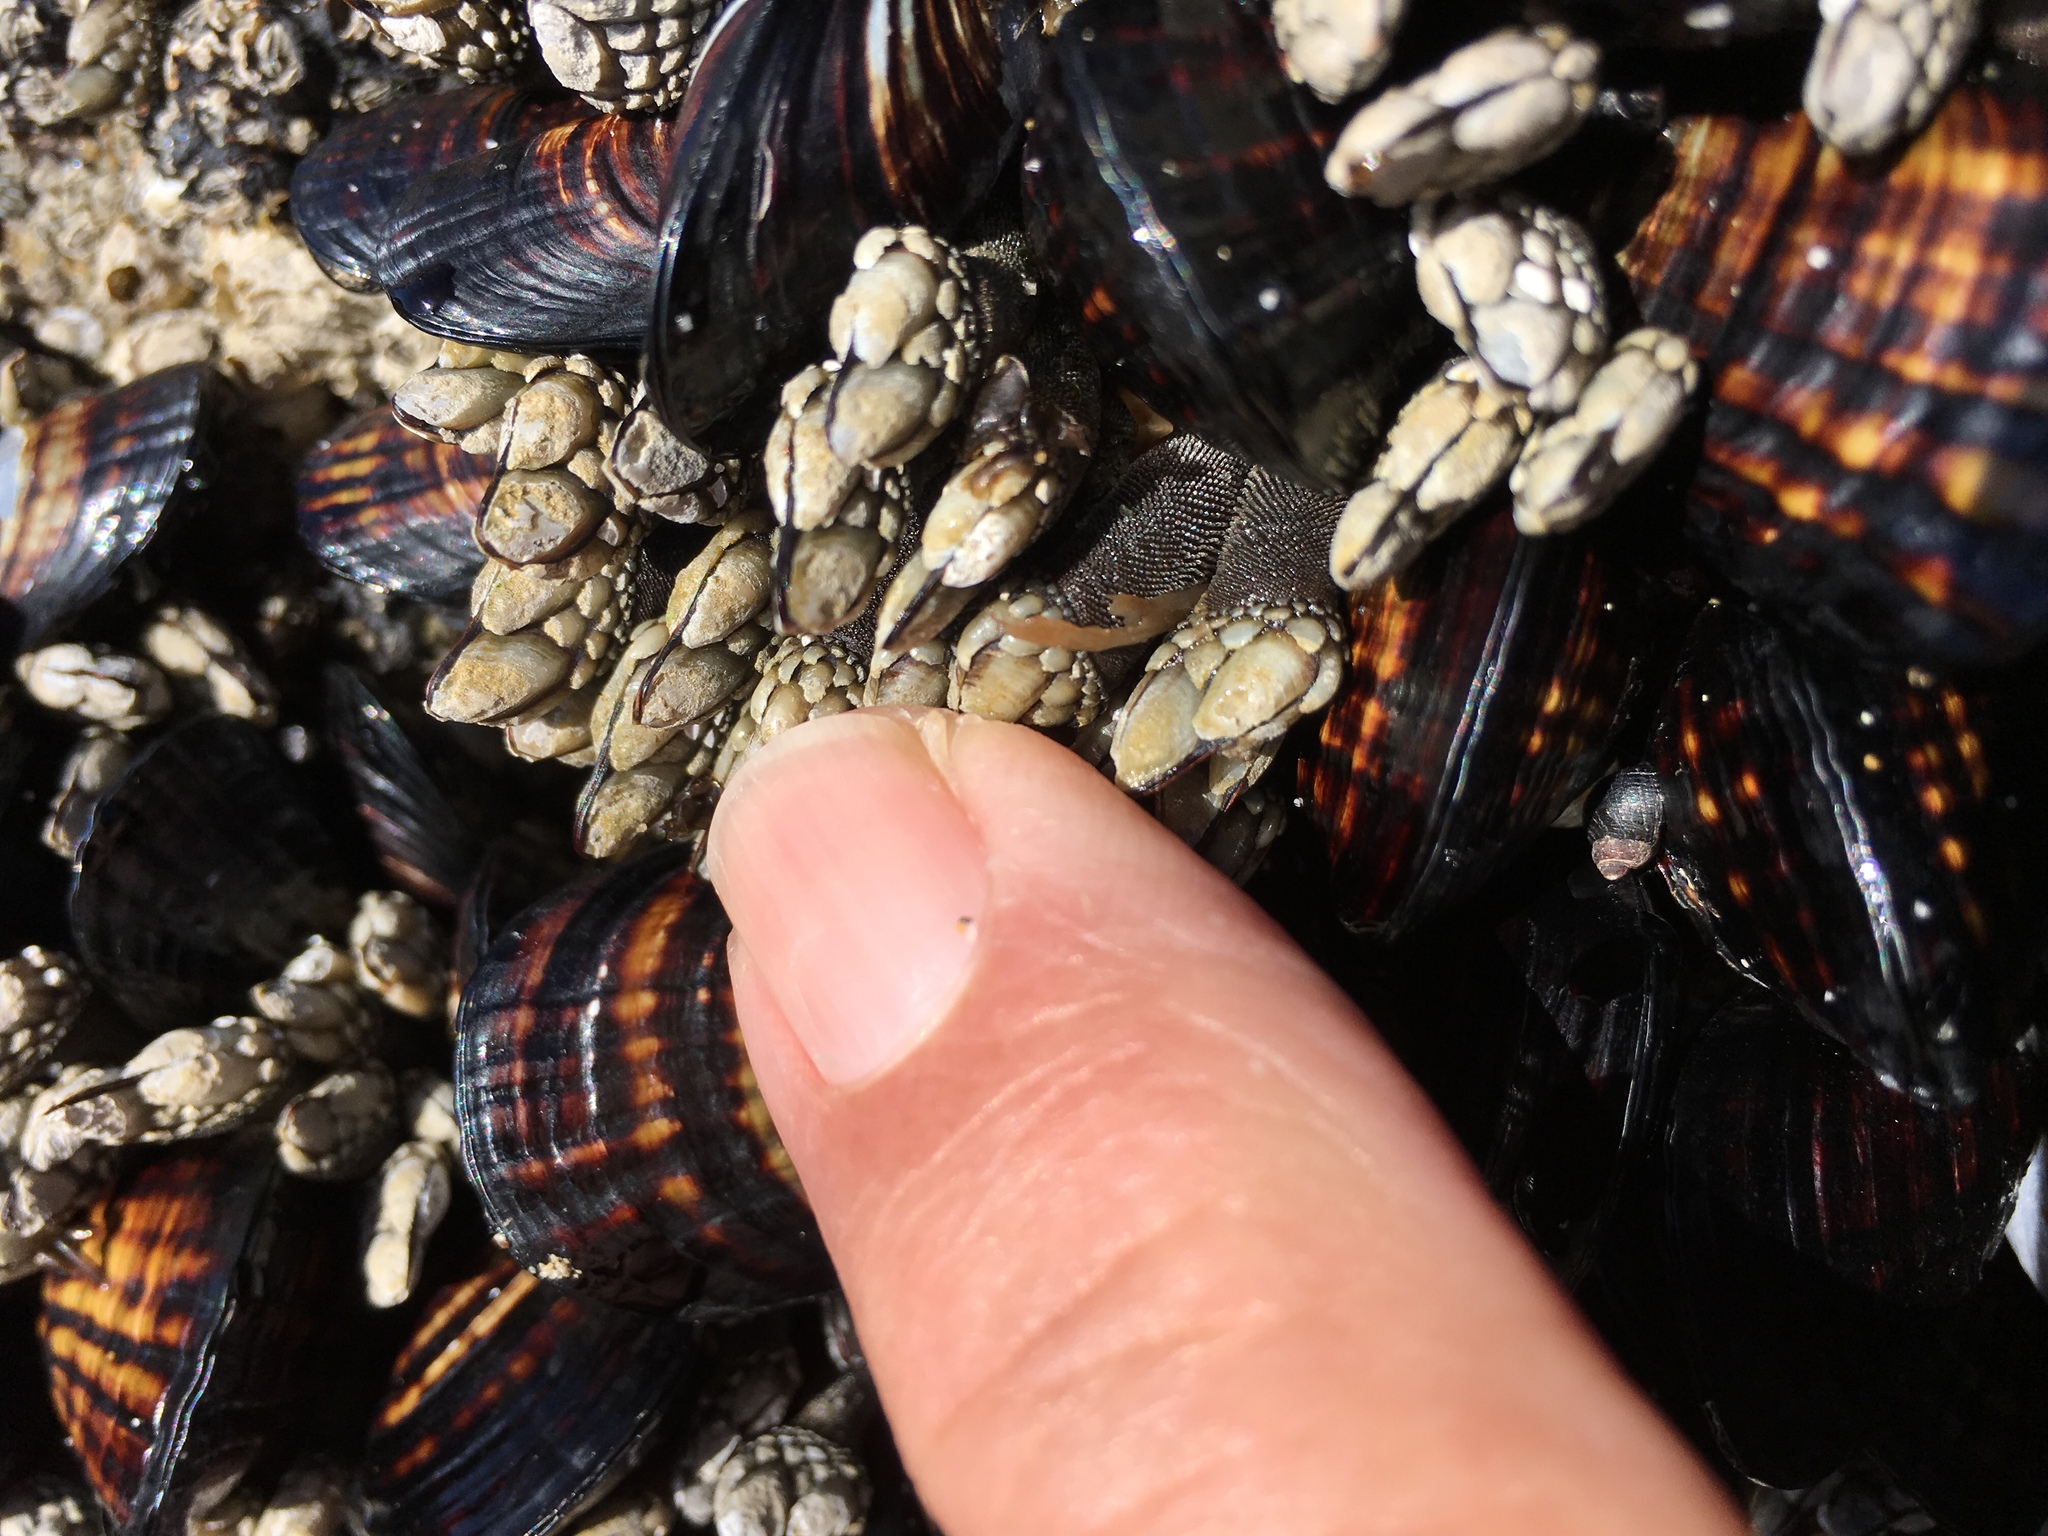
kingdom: Animalia
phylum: Arthropoda
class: Maxillopoda
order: Pedunculata
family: Pollicipedidae
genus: Pollicipes
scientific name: Pollicipes polymerus
